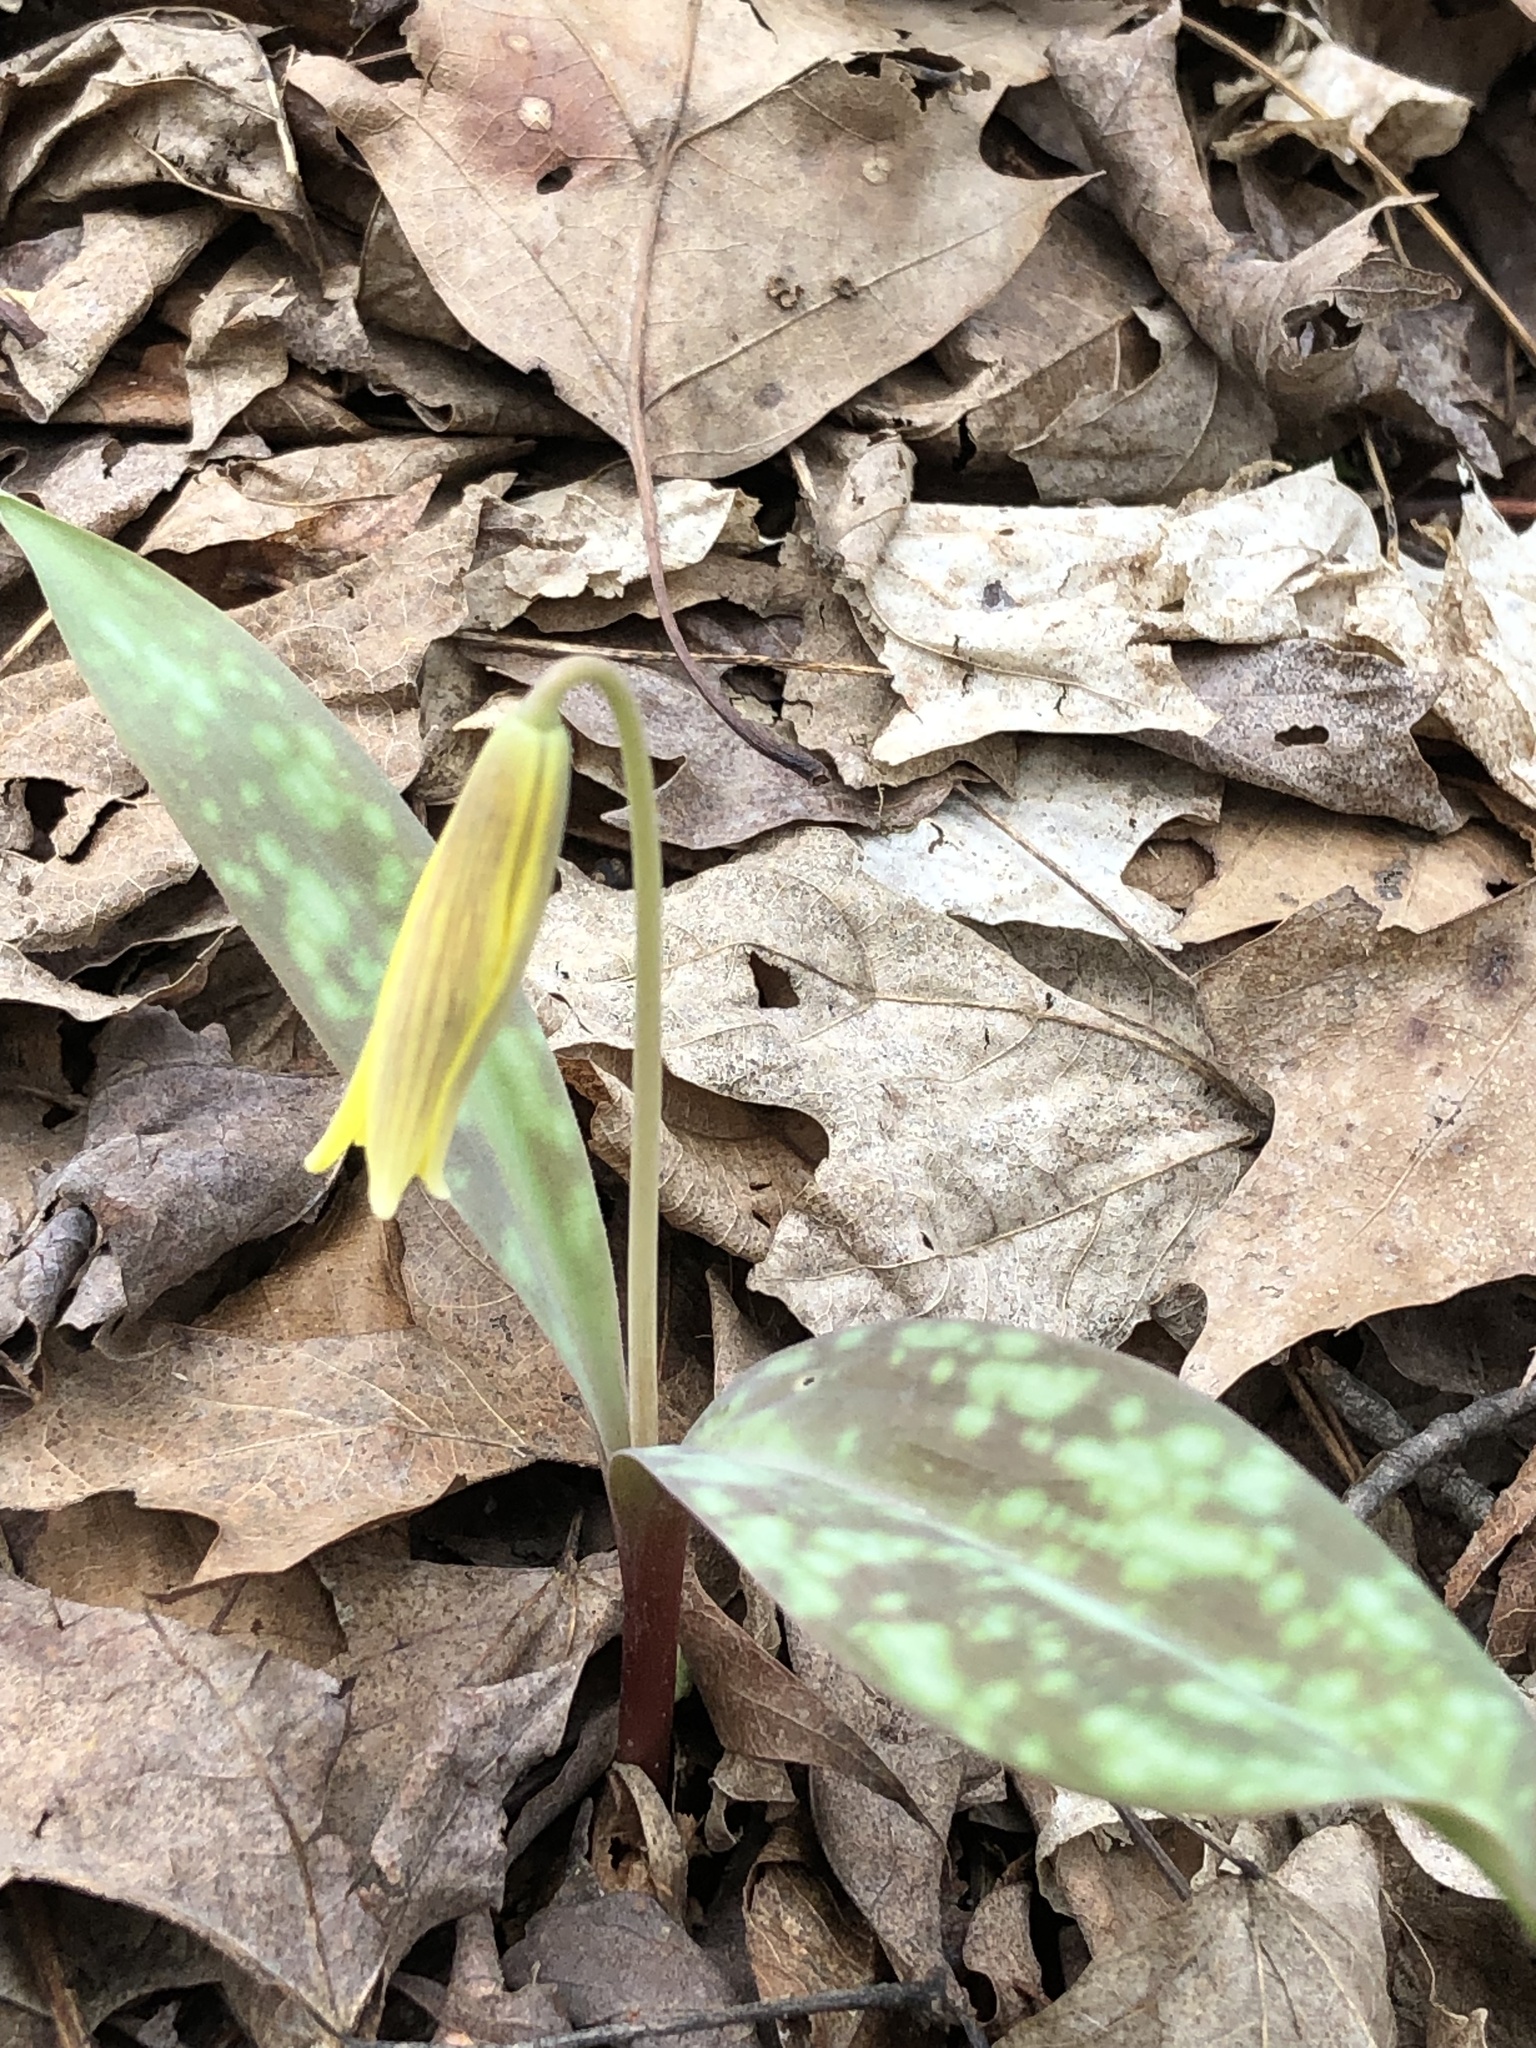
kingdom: Plantae
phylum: Tracheophyta
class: Liliopsida
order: Liliales
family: Liliaceae
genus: Erythronium
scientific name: Erythronium americanum
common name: Yellow adder's-tongue
